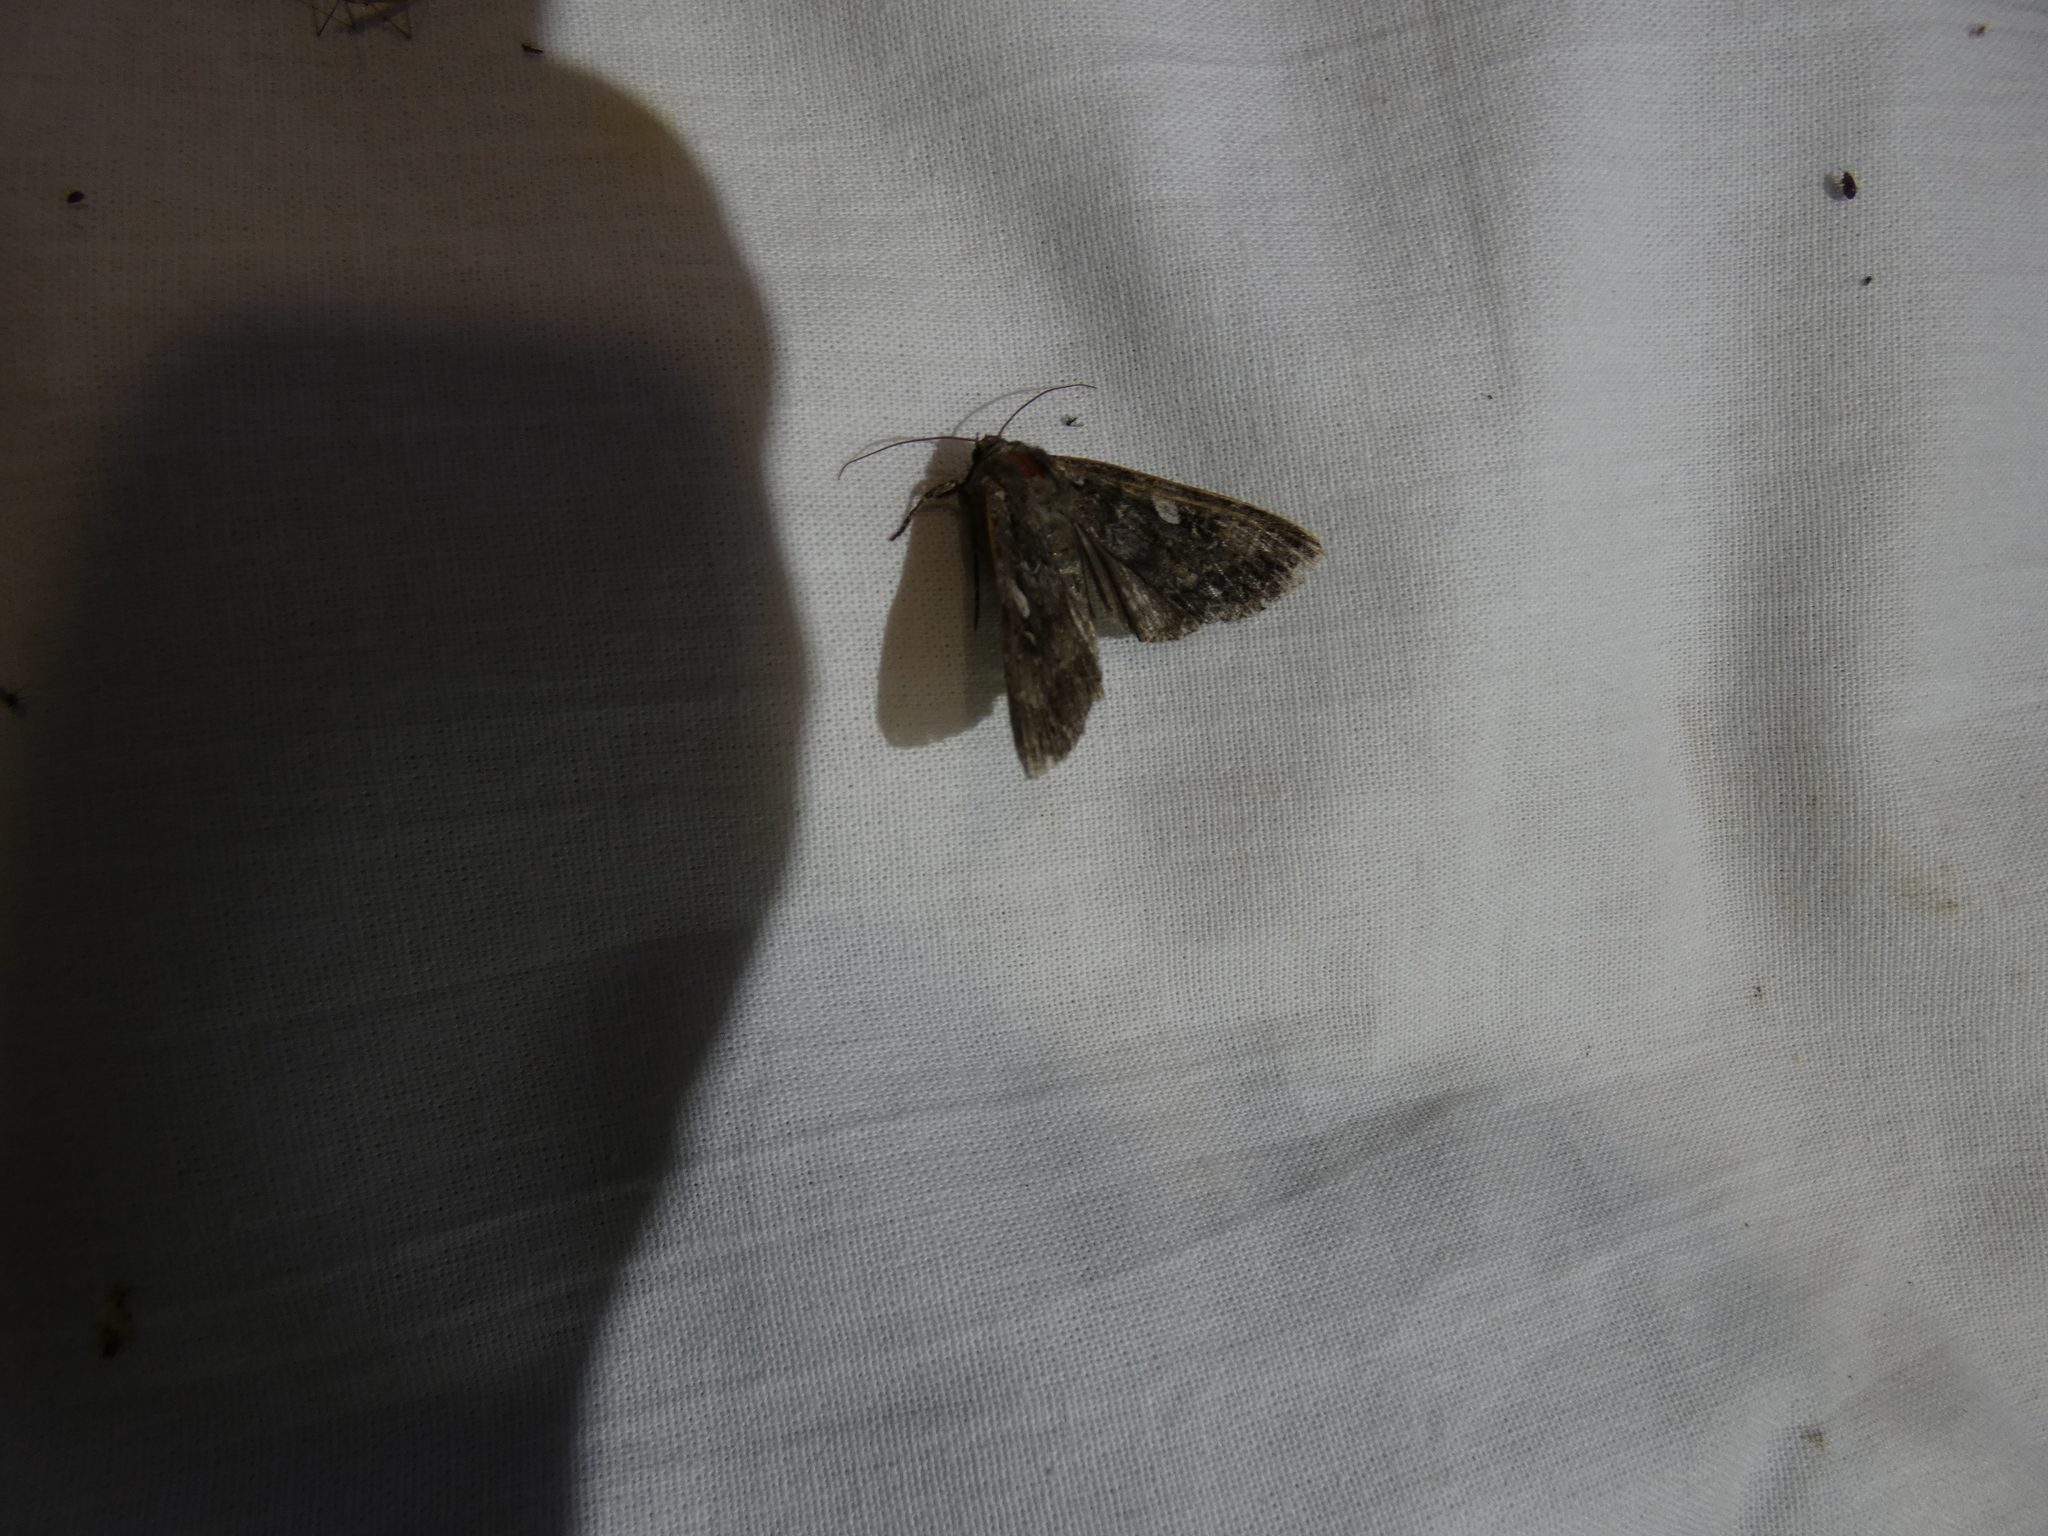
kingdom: Animalia
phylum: Arthropoda
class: Insecta
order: Lepidoptera
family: Noctuidae
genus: Eurois
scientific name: Eurois occulta
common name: Great brocade
